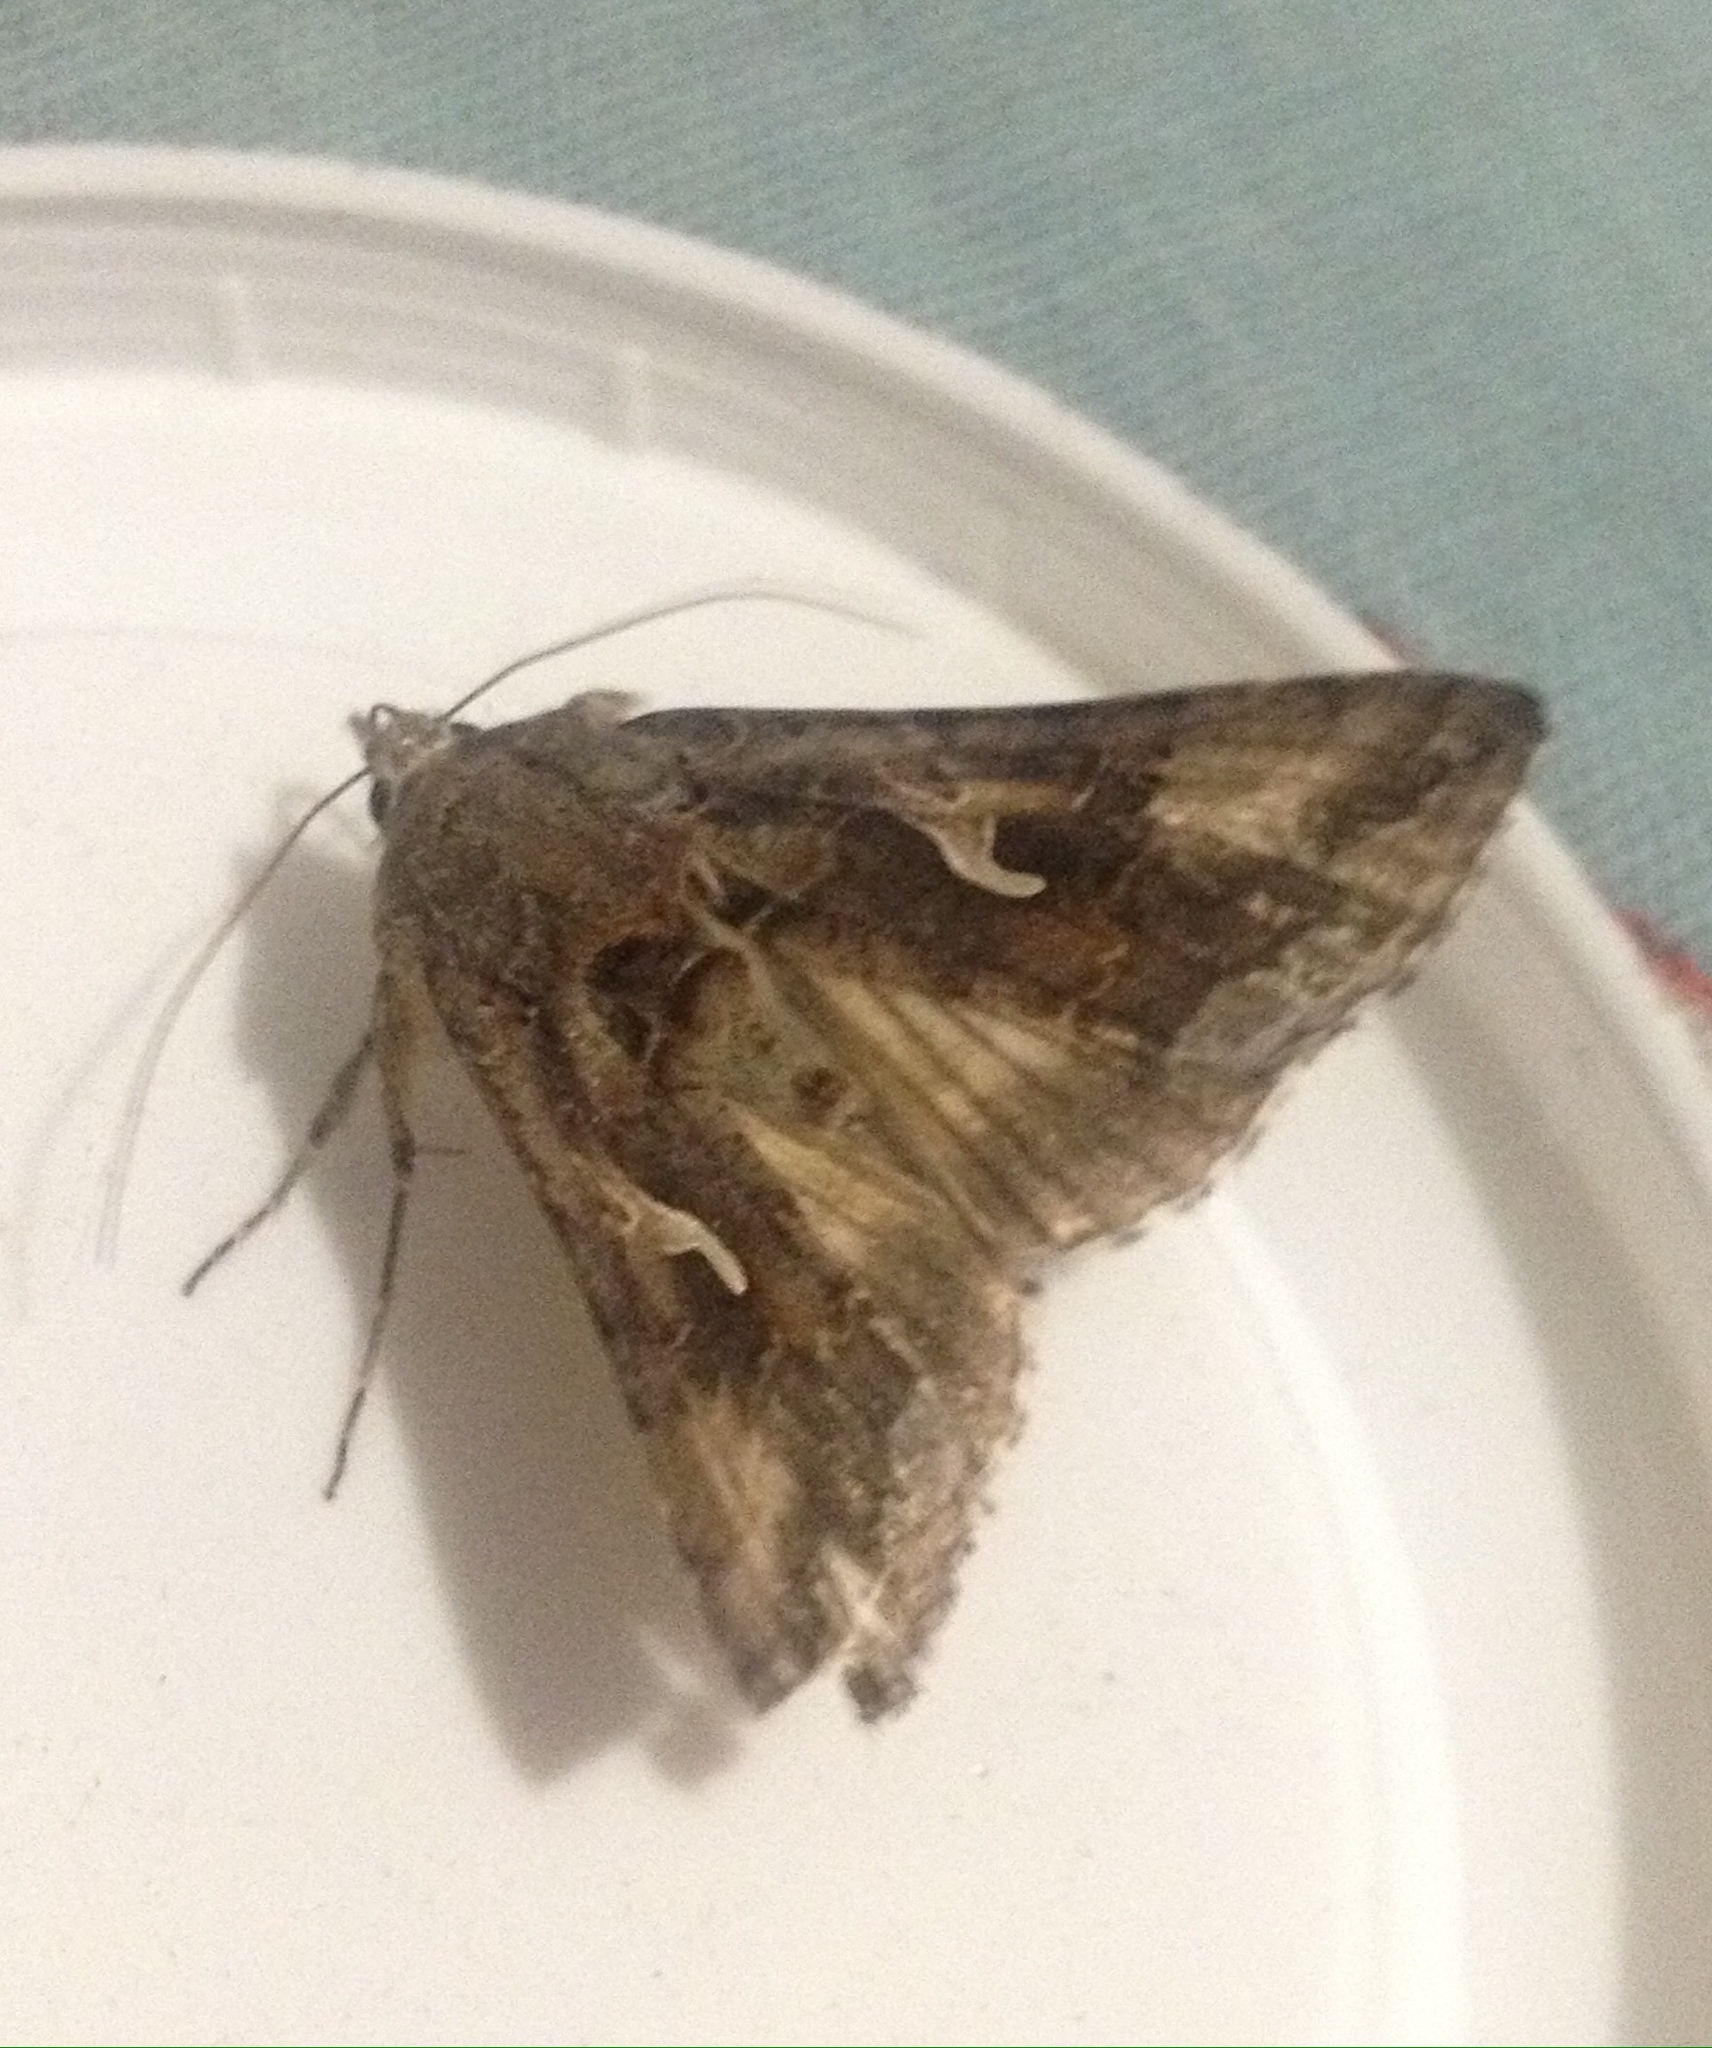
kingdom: Animalia
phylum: Arthropoda
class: Insecta
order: Lepidoptera
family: Noctuidae
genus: Autographa
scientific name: Autographa gamma
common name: Silver y
